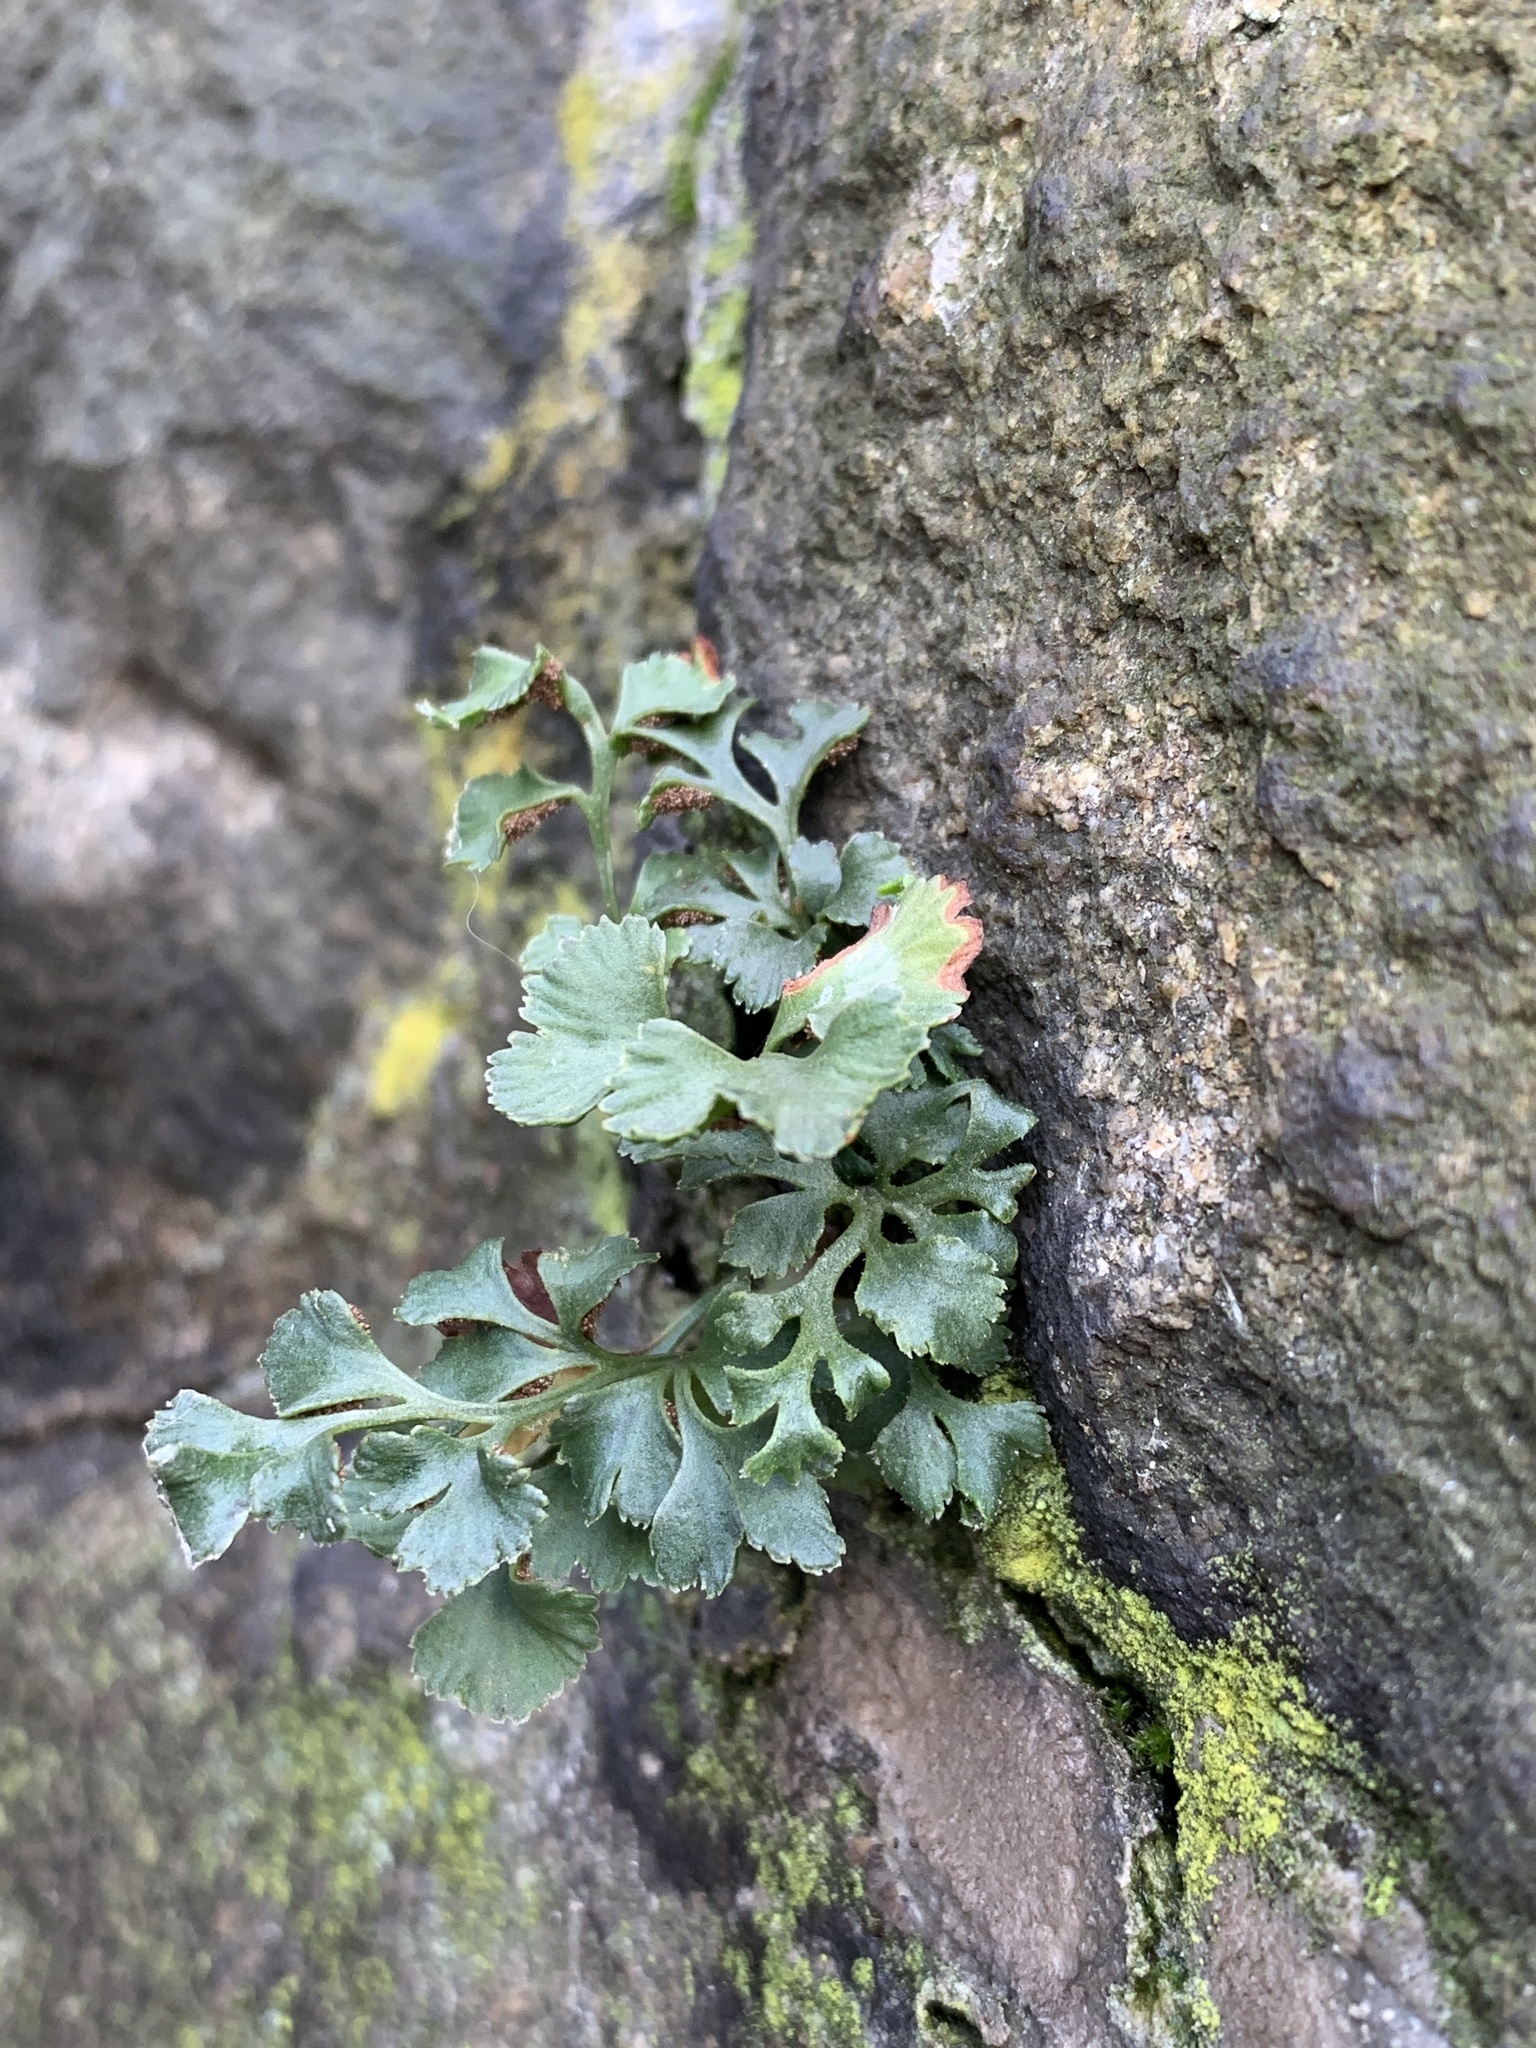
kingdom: Plantae
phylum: Tracheophyta
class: Polypodiopsida
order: Polypodiales
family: Aspleniaceae
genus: Asplenium
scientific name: Asplenium ruta-muraria
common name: Wall-rue
